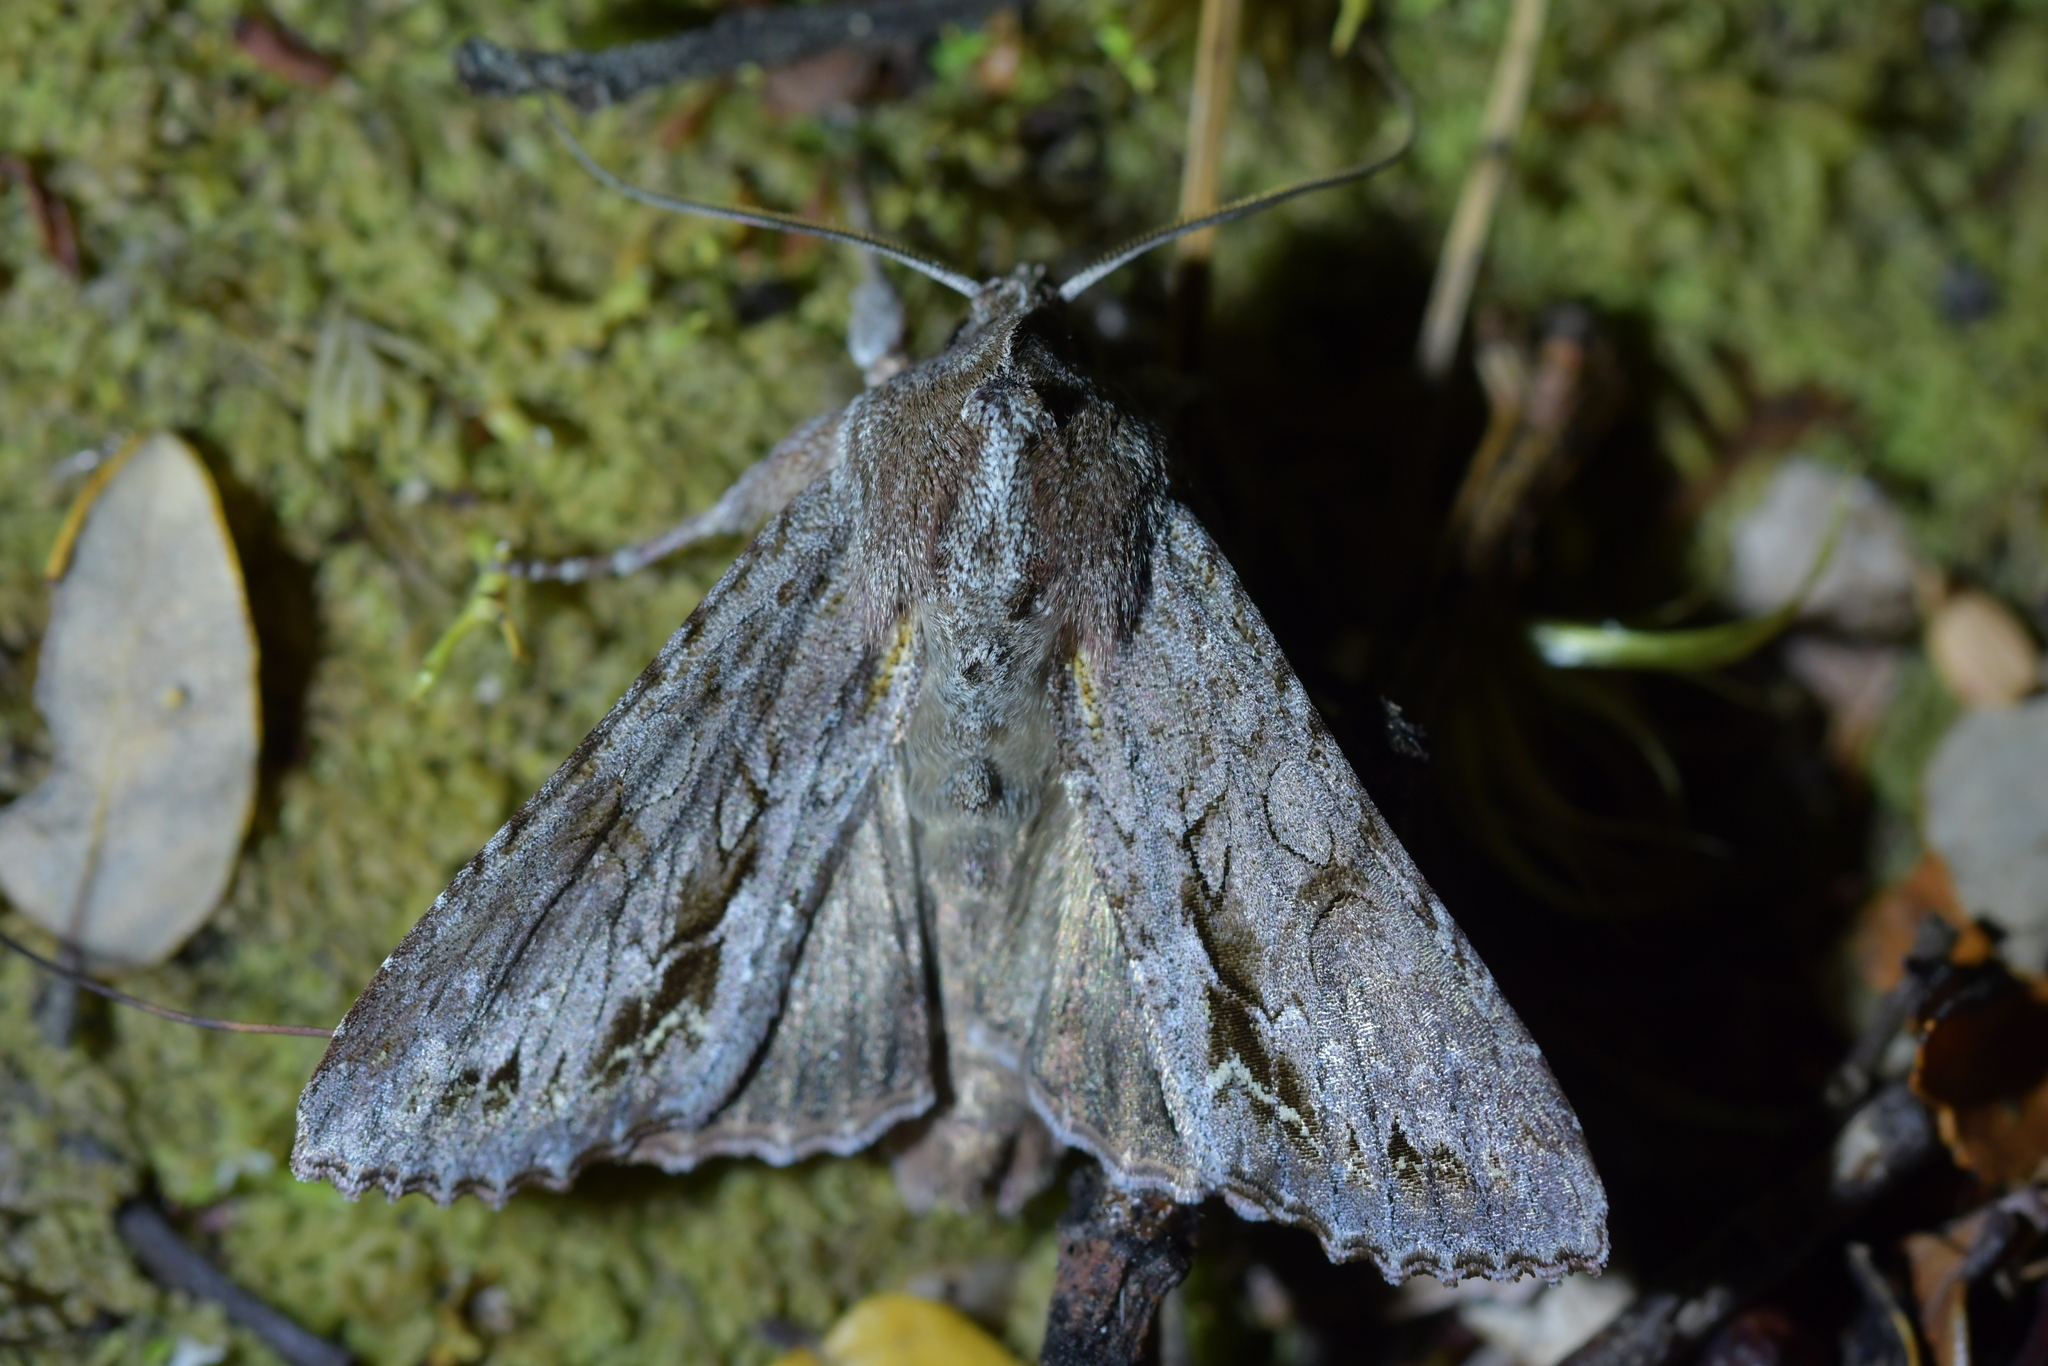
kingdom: Animalia
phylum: Arthropoda
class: Insecta
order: Lepidoptera
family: Noctuidae
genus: Ichneutica
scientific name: Ichneutica
